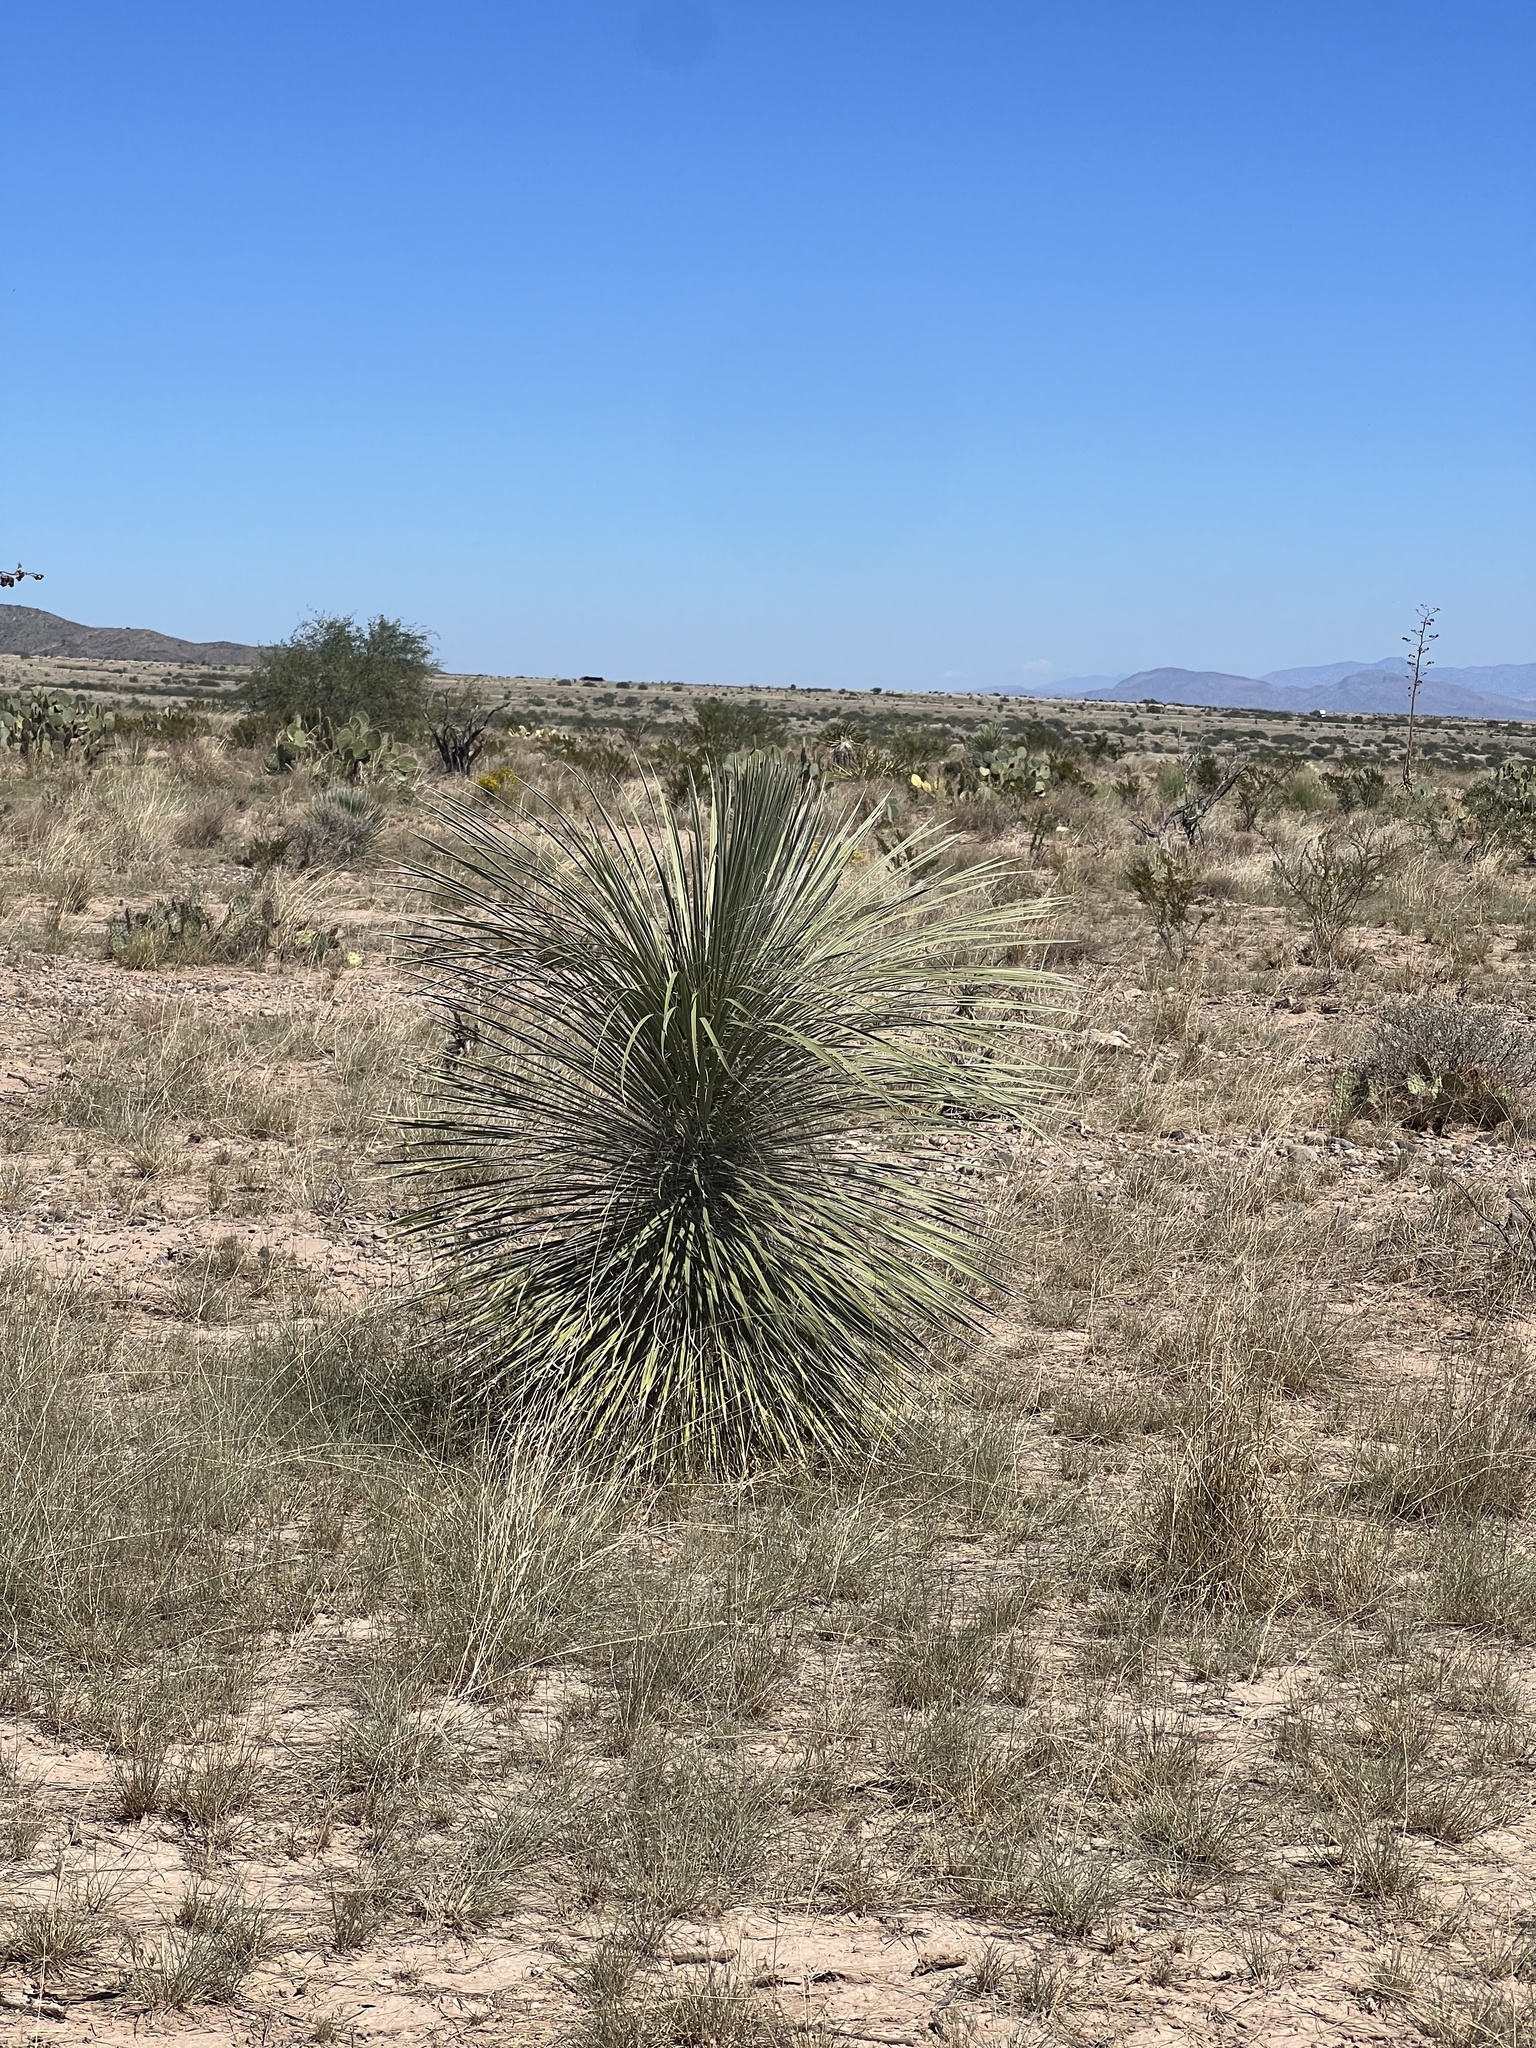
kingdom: Plantae
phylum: Tracheophyta
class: Liliopsida
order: Asparagales
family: Asparagaceae
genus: Yucca
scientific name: Yucca elata
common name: Palmella
